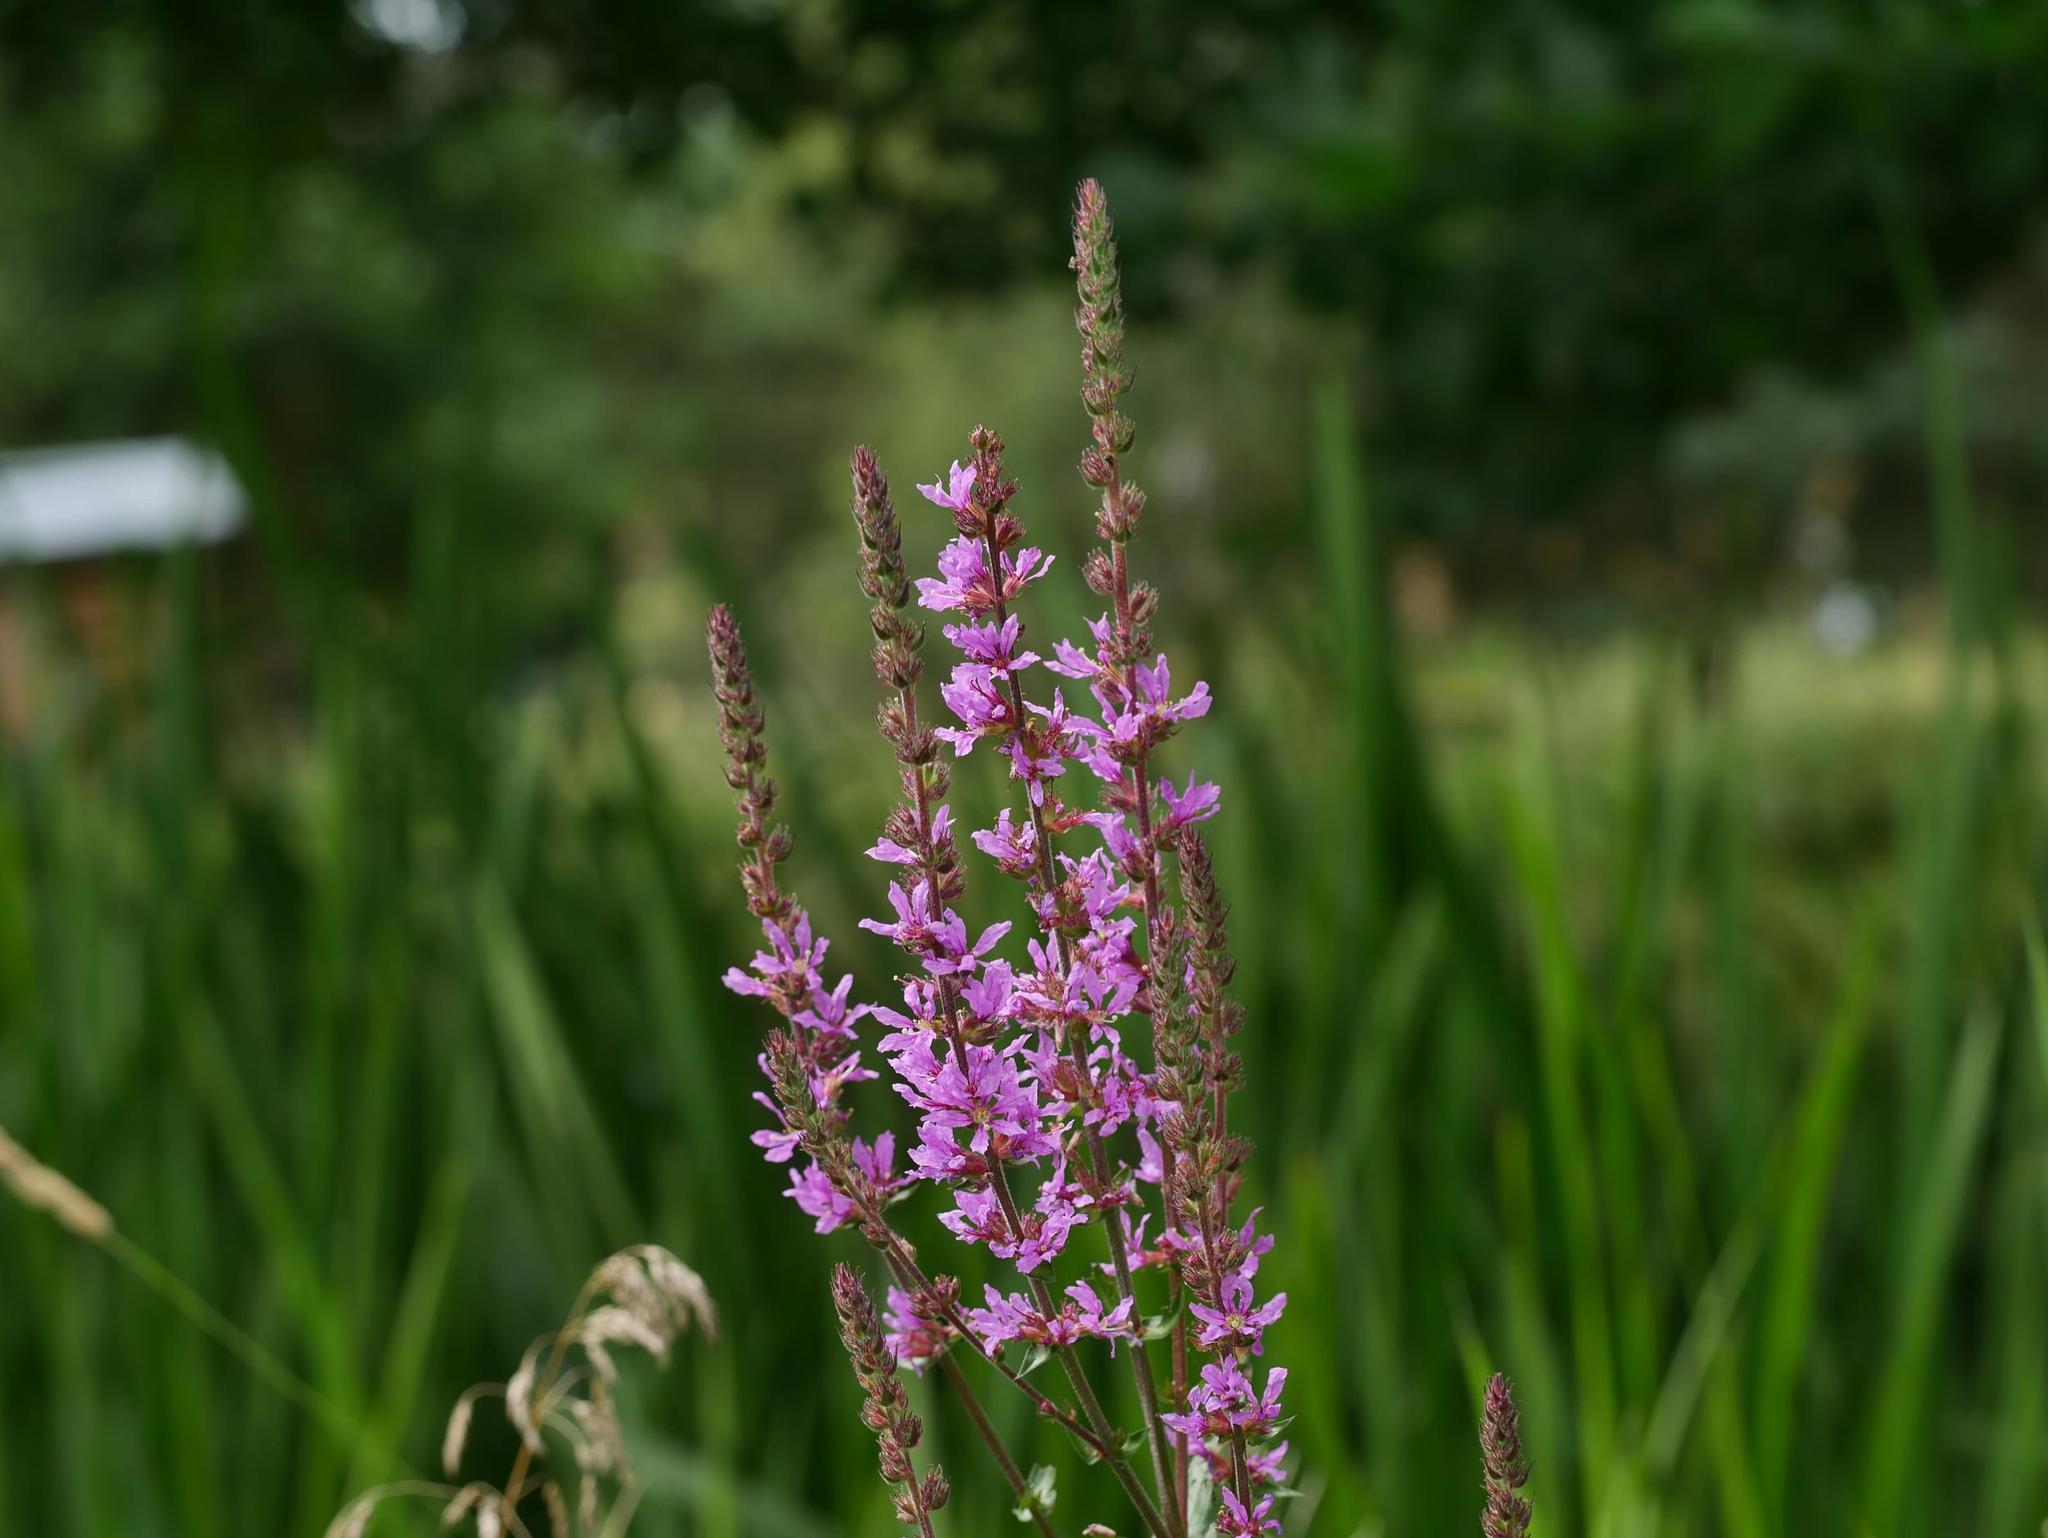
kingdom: Plantae
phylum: Tracheophyta
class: Magnoliopsida
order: Myrtales
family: Lythraceae
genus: Lythrum
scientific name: Lythrum salicaria
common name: Purple loosestrife
